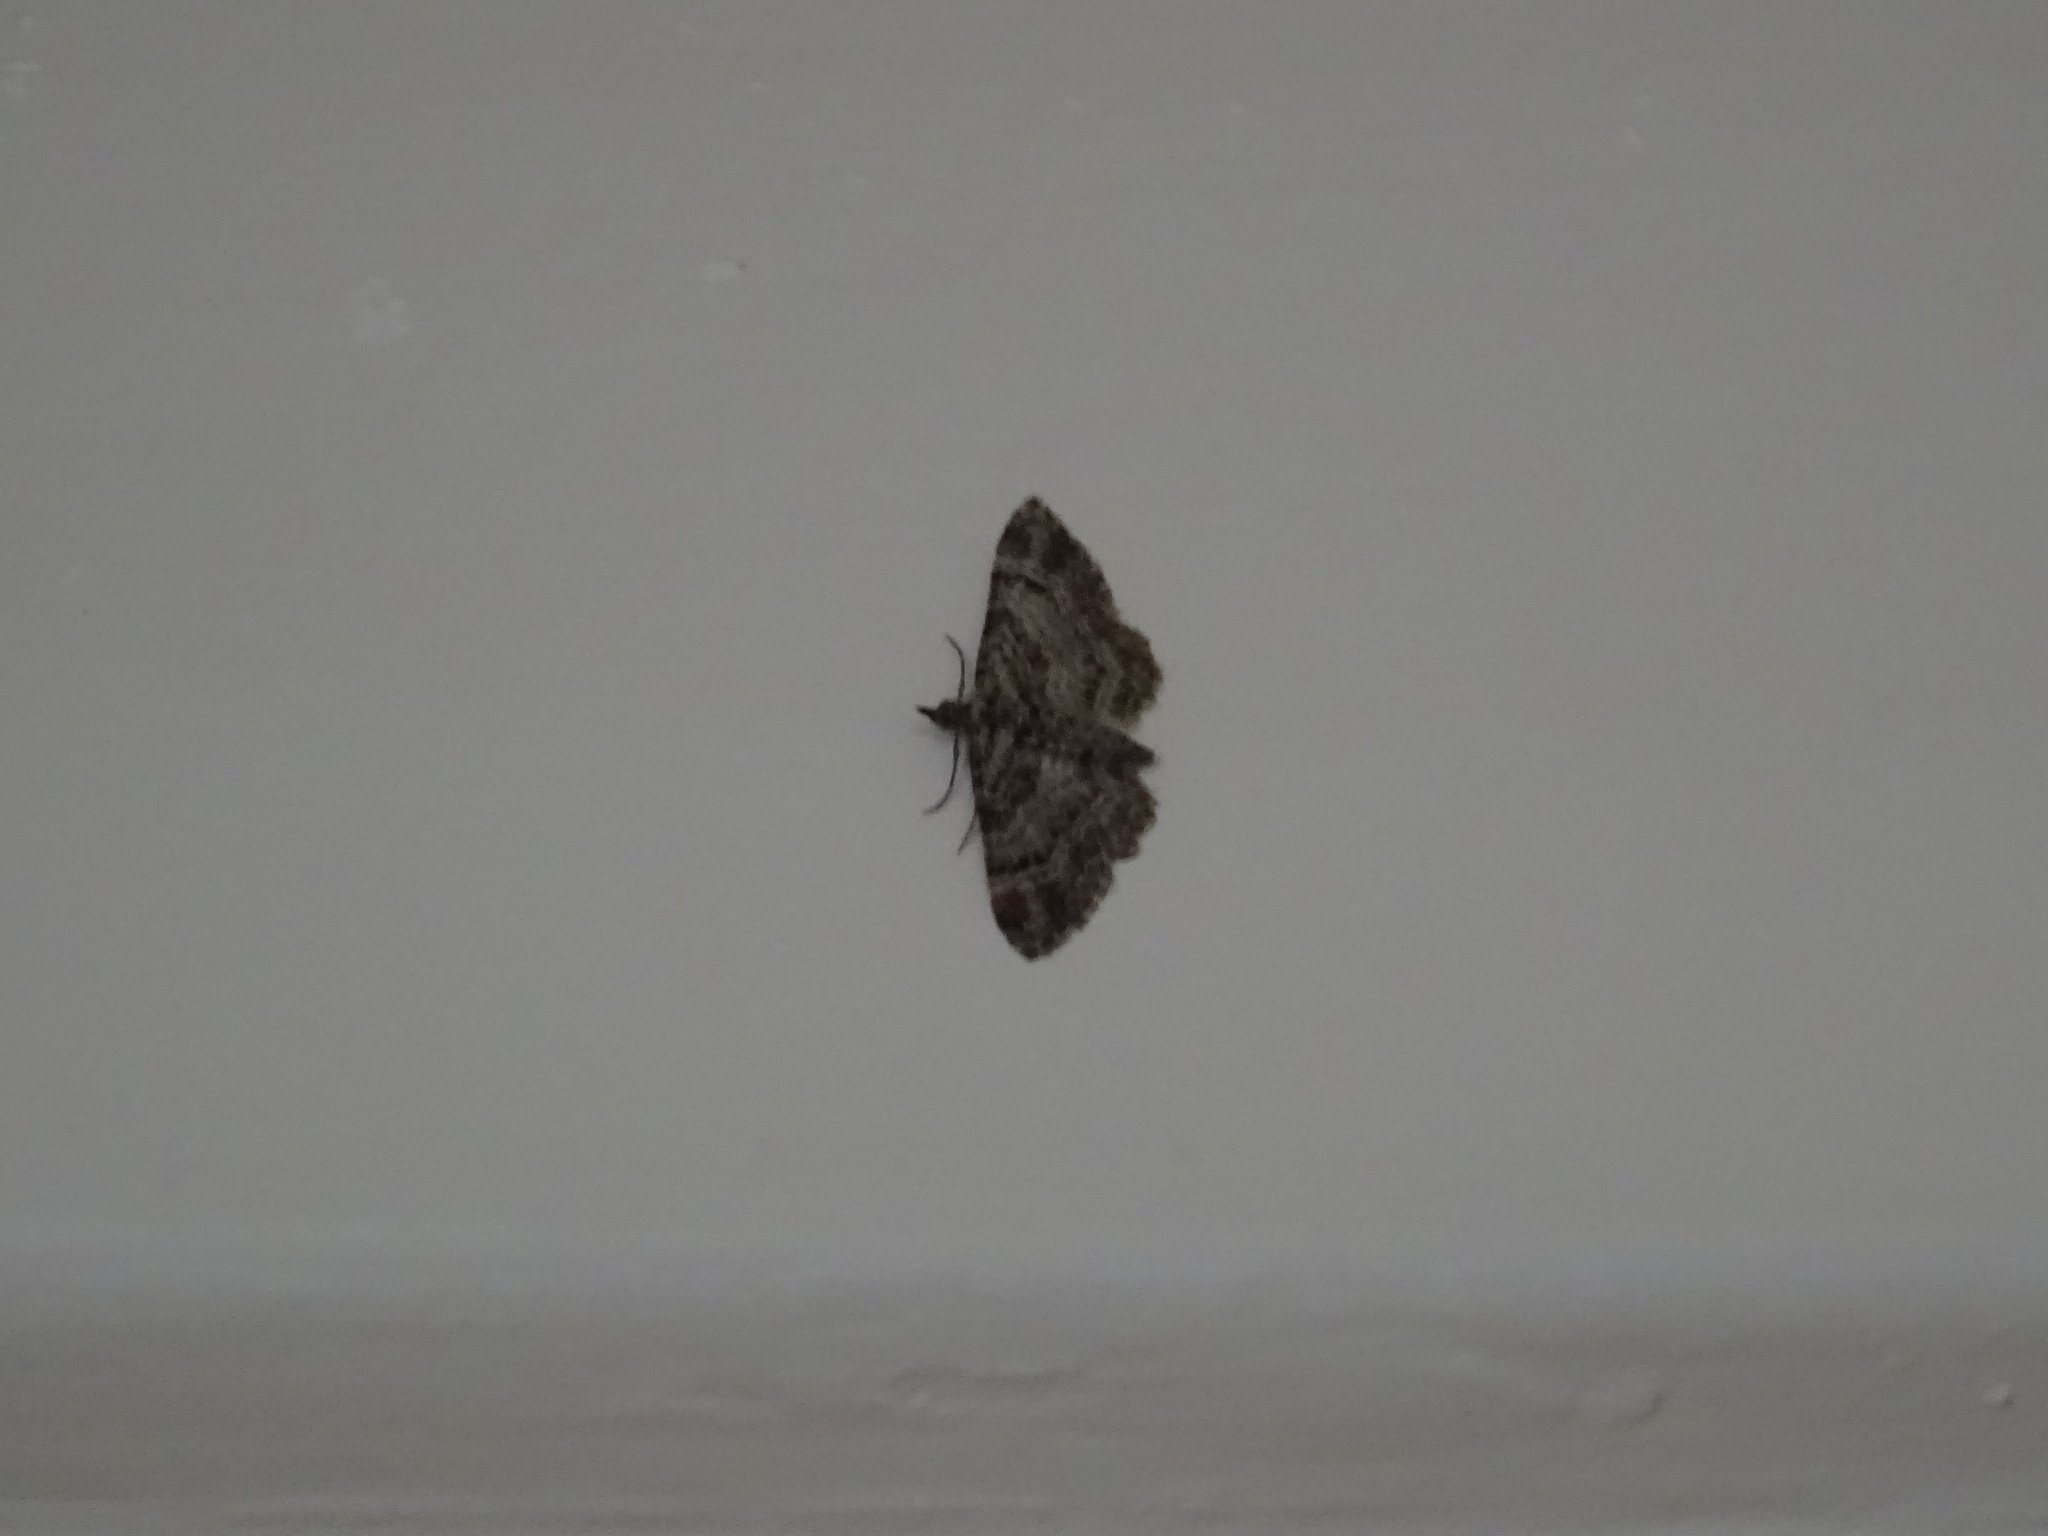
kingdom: Animalia
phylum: Arthropoda
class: Insecta
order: Lepidoptera
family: Geometridae
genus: Gymnoscelis
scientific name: Gymnoscelis rufifasciata
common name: Double-striped pug
